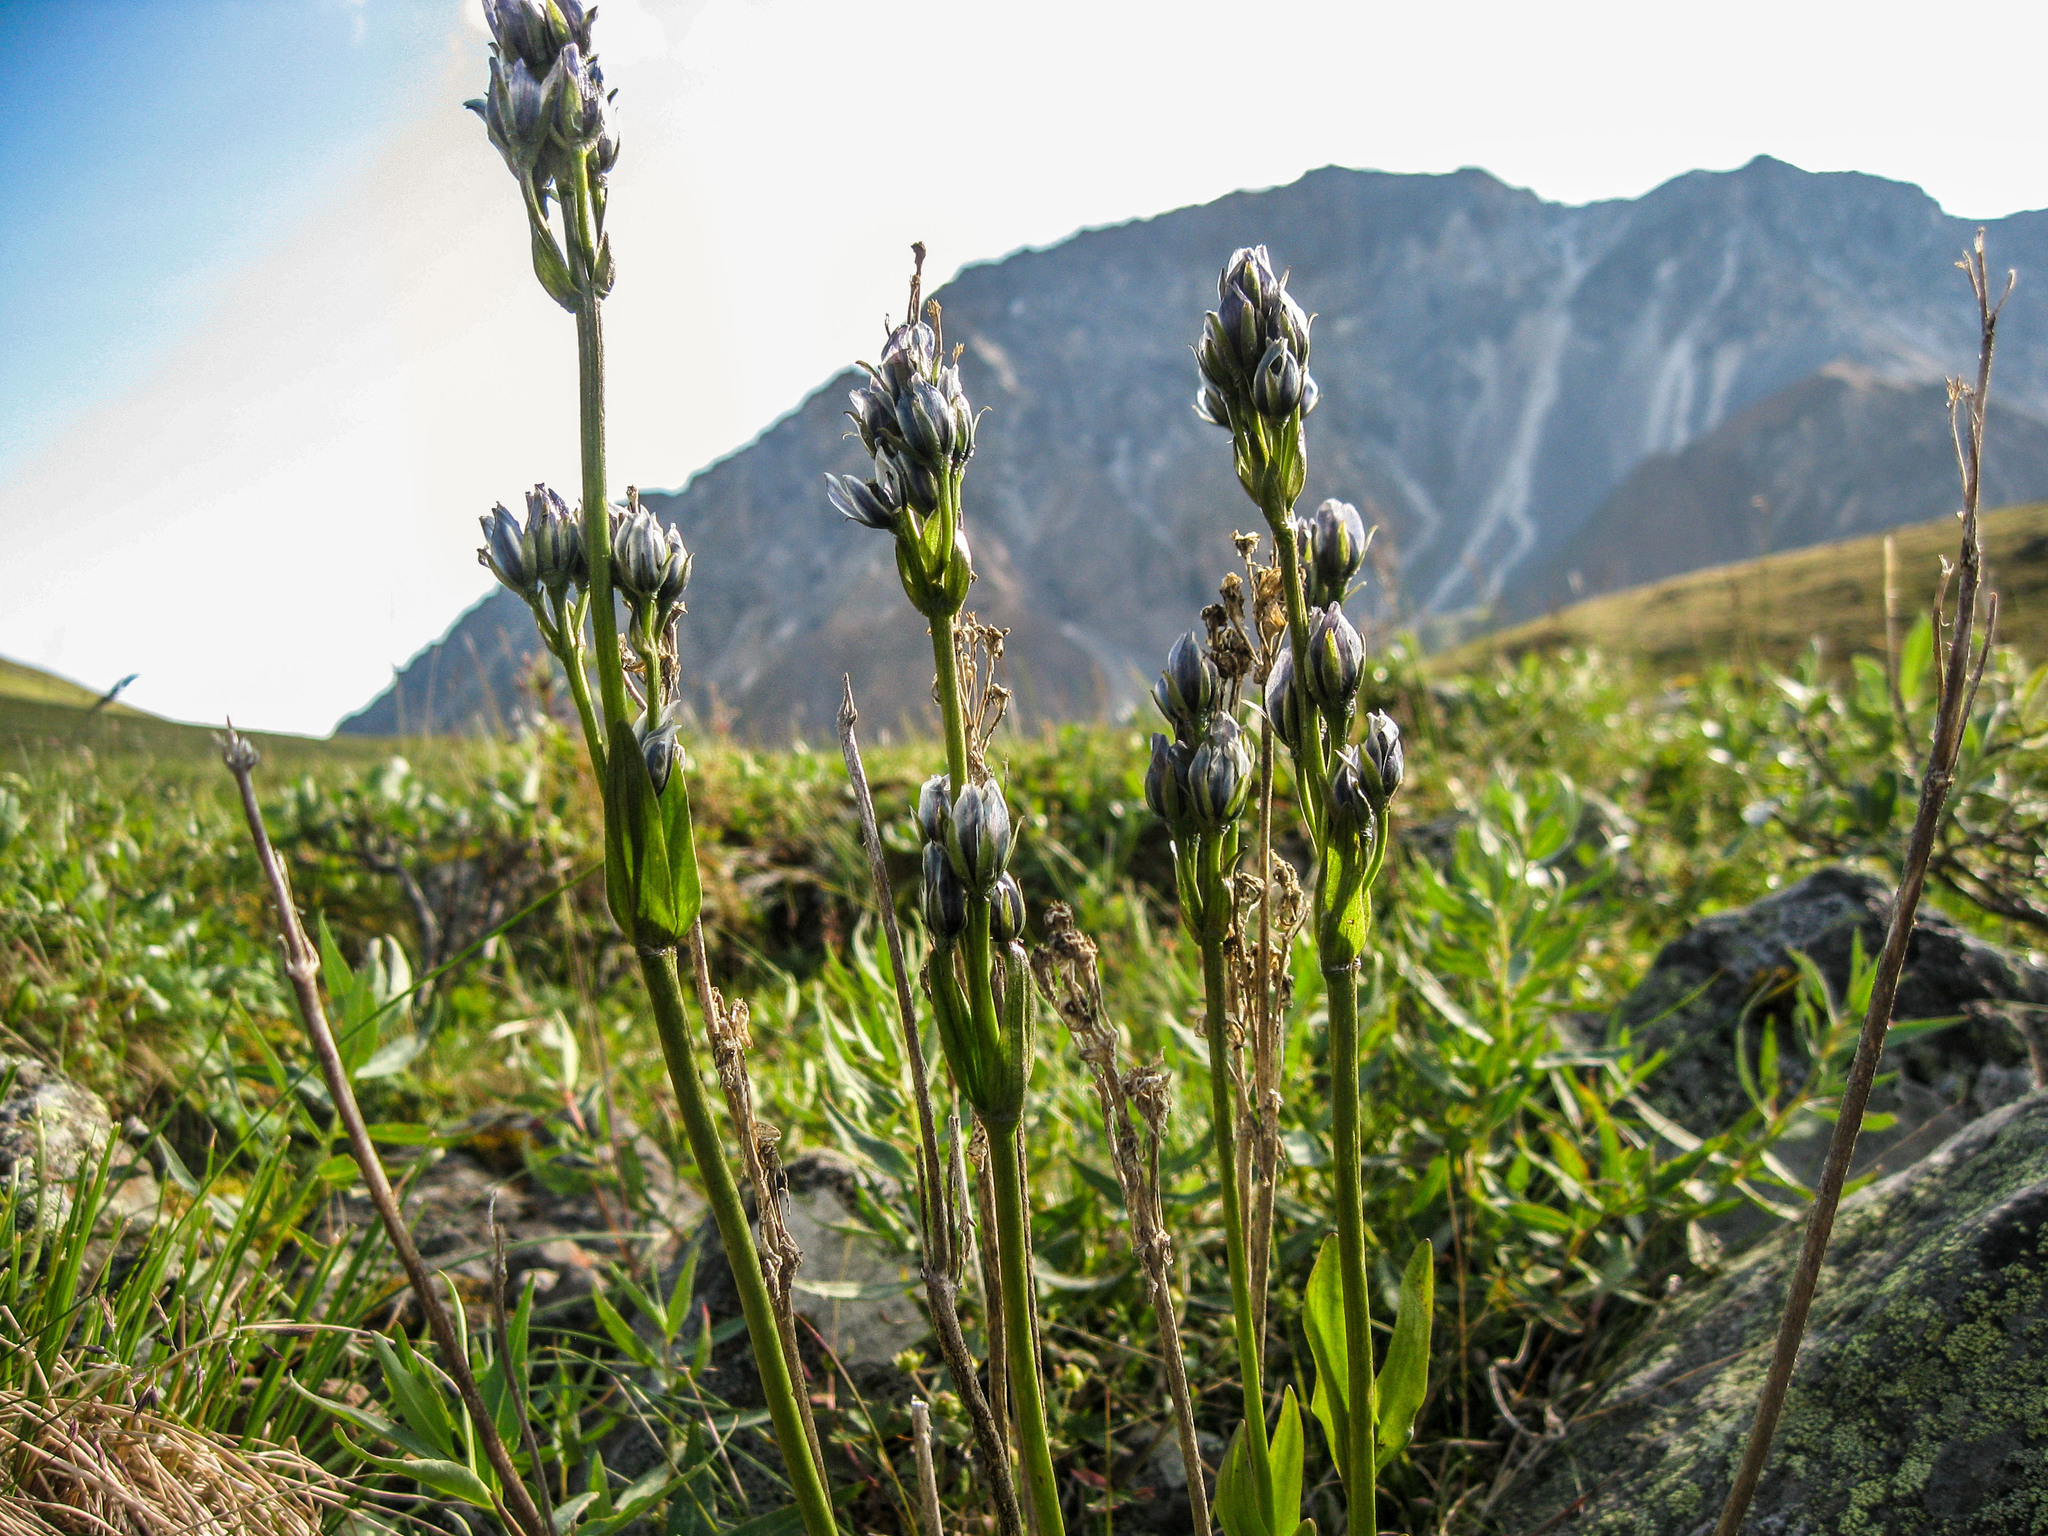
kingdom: Plantae
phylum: Tracheophyta
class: Magnoliopsida
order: Gentianales
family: Gentianaceae
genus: Swertia
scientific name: Swertia marginata
